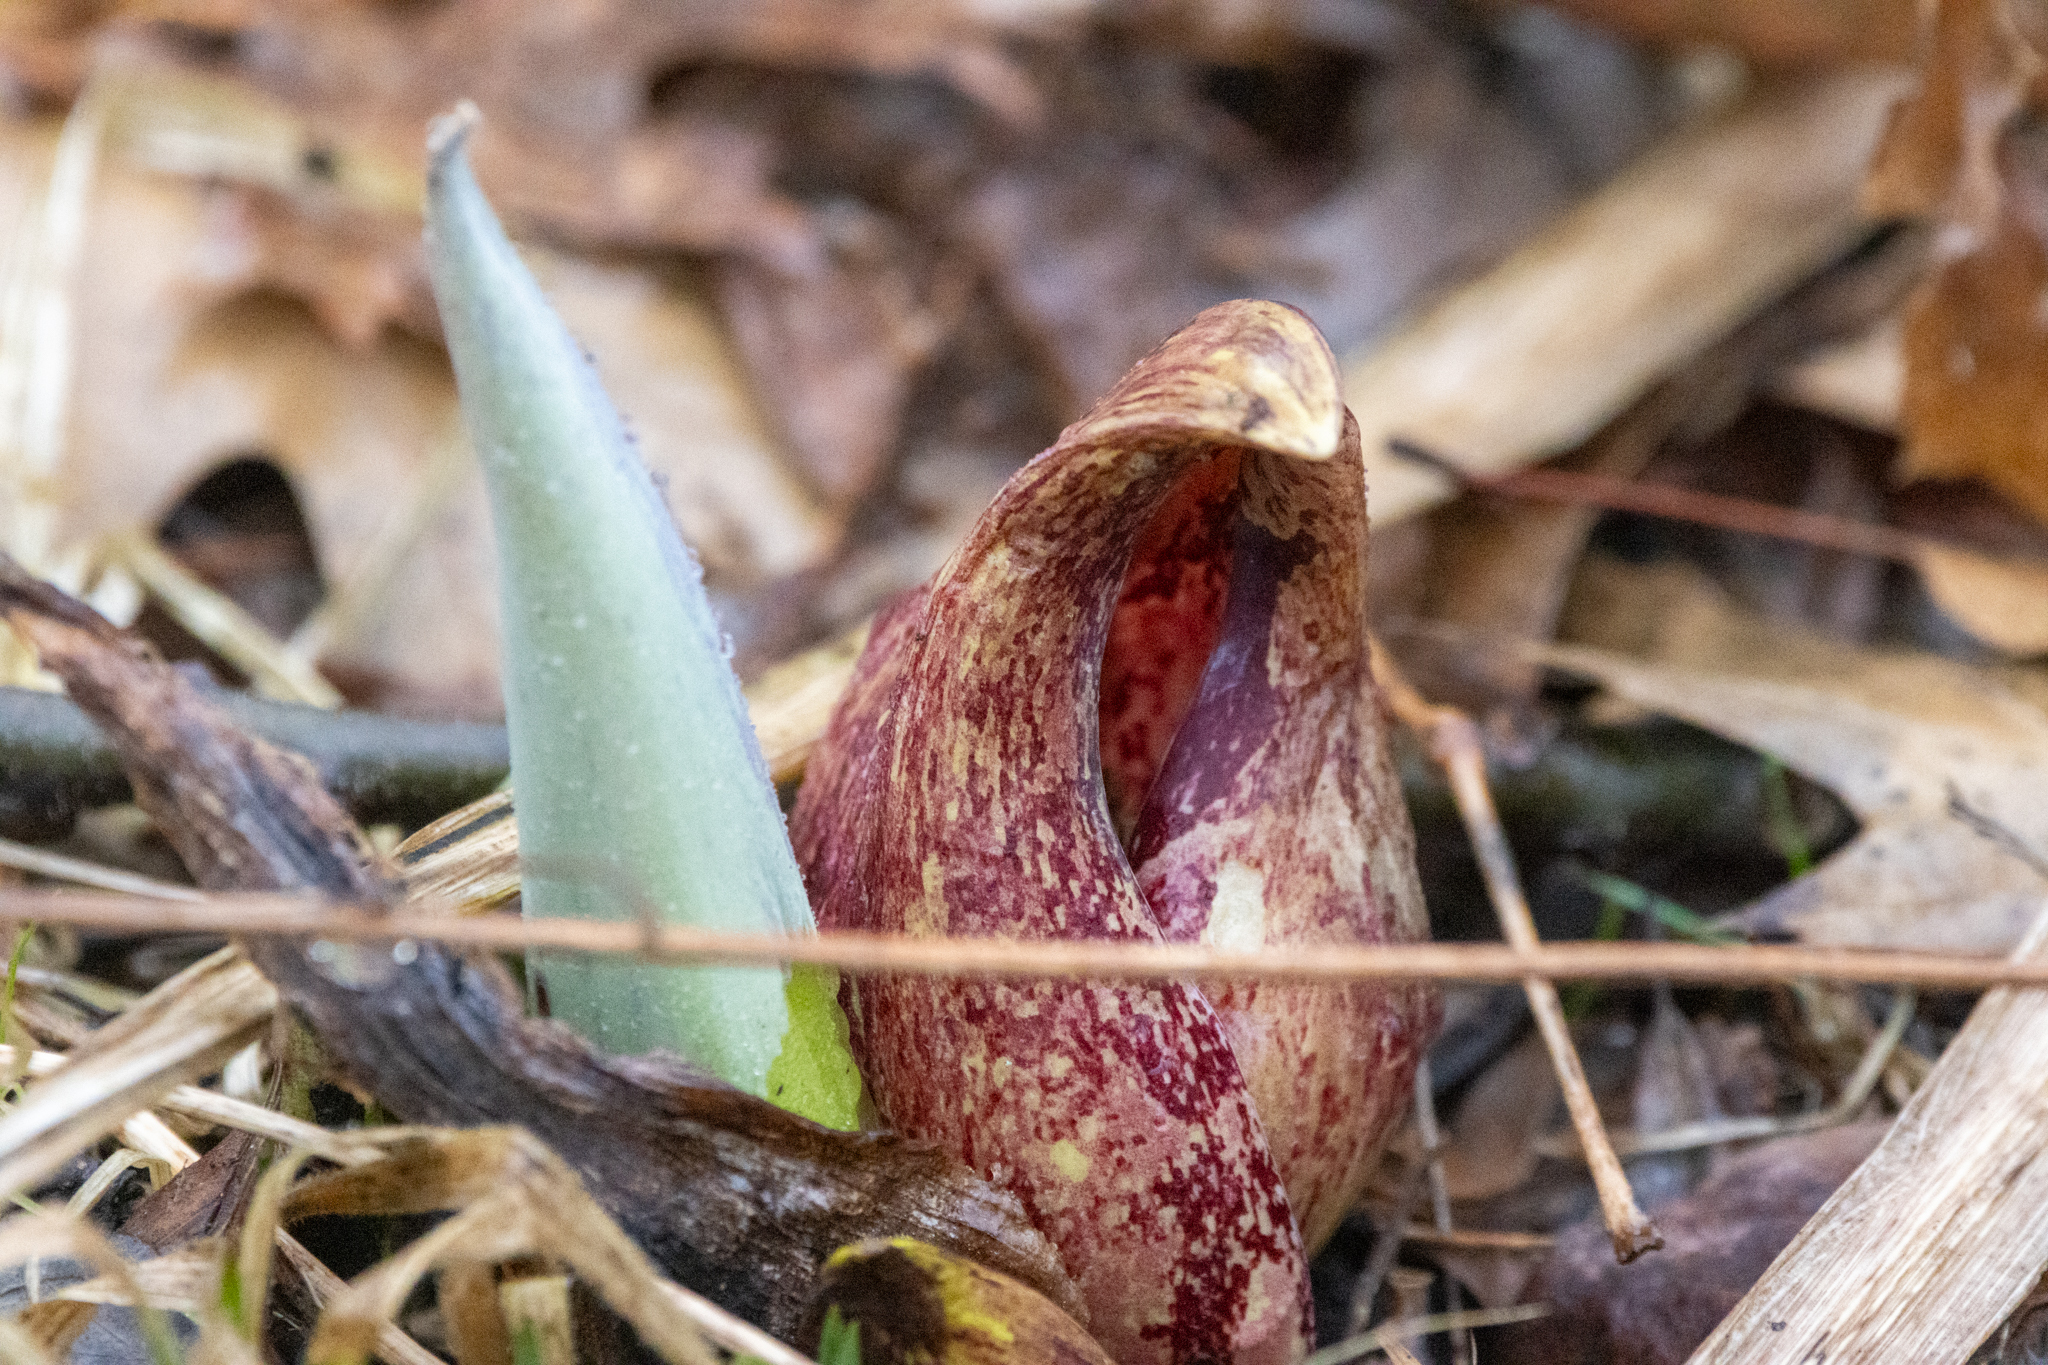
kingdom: Plantae
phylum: Tracheophyta
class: Liliopsida
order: Alismatales
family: Araceae
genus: Symplocarpus
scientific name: Symplocarpus foetidus
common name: Eastern skunk cabbage
